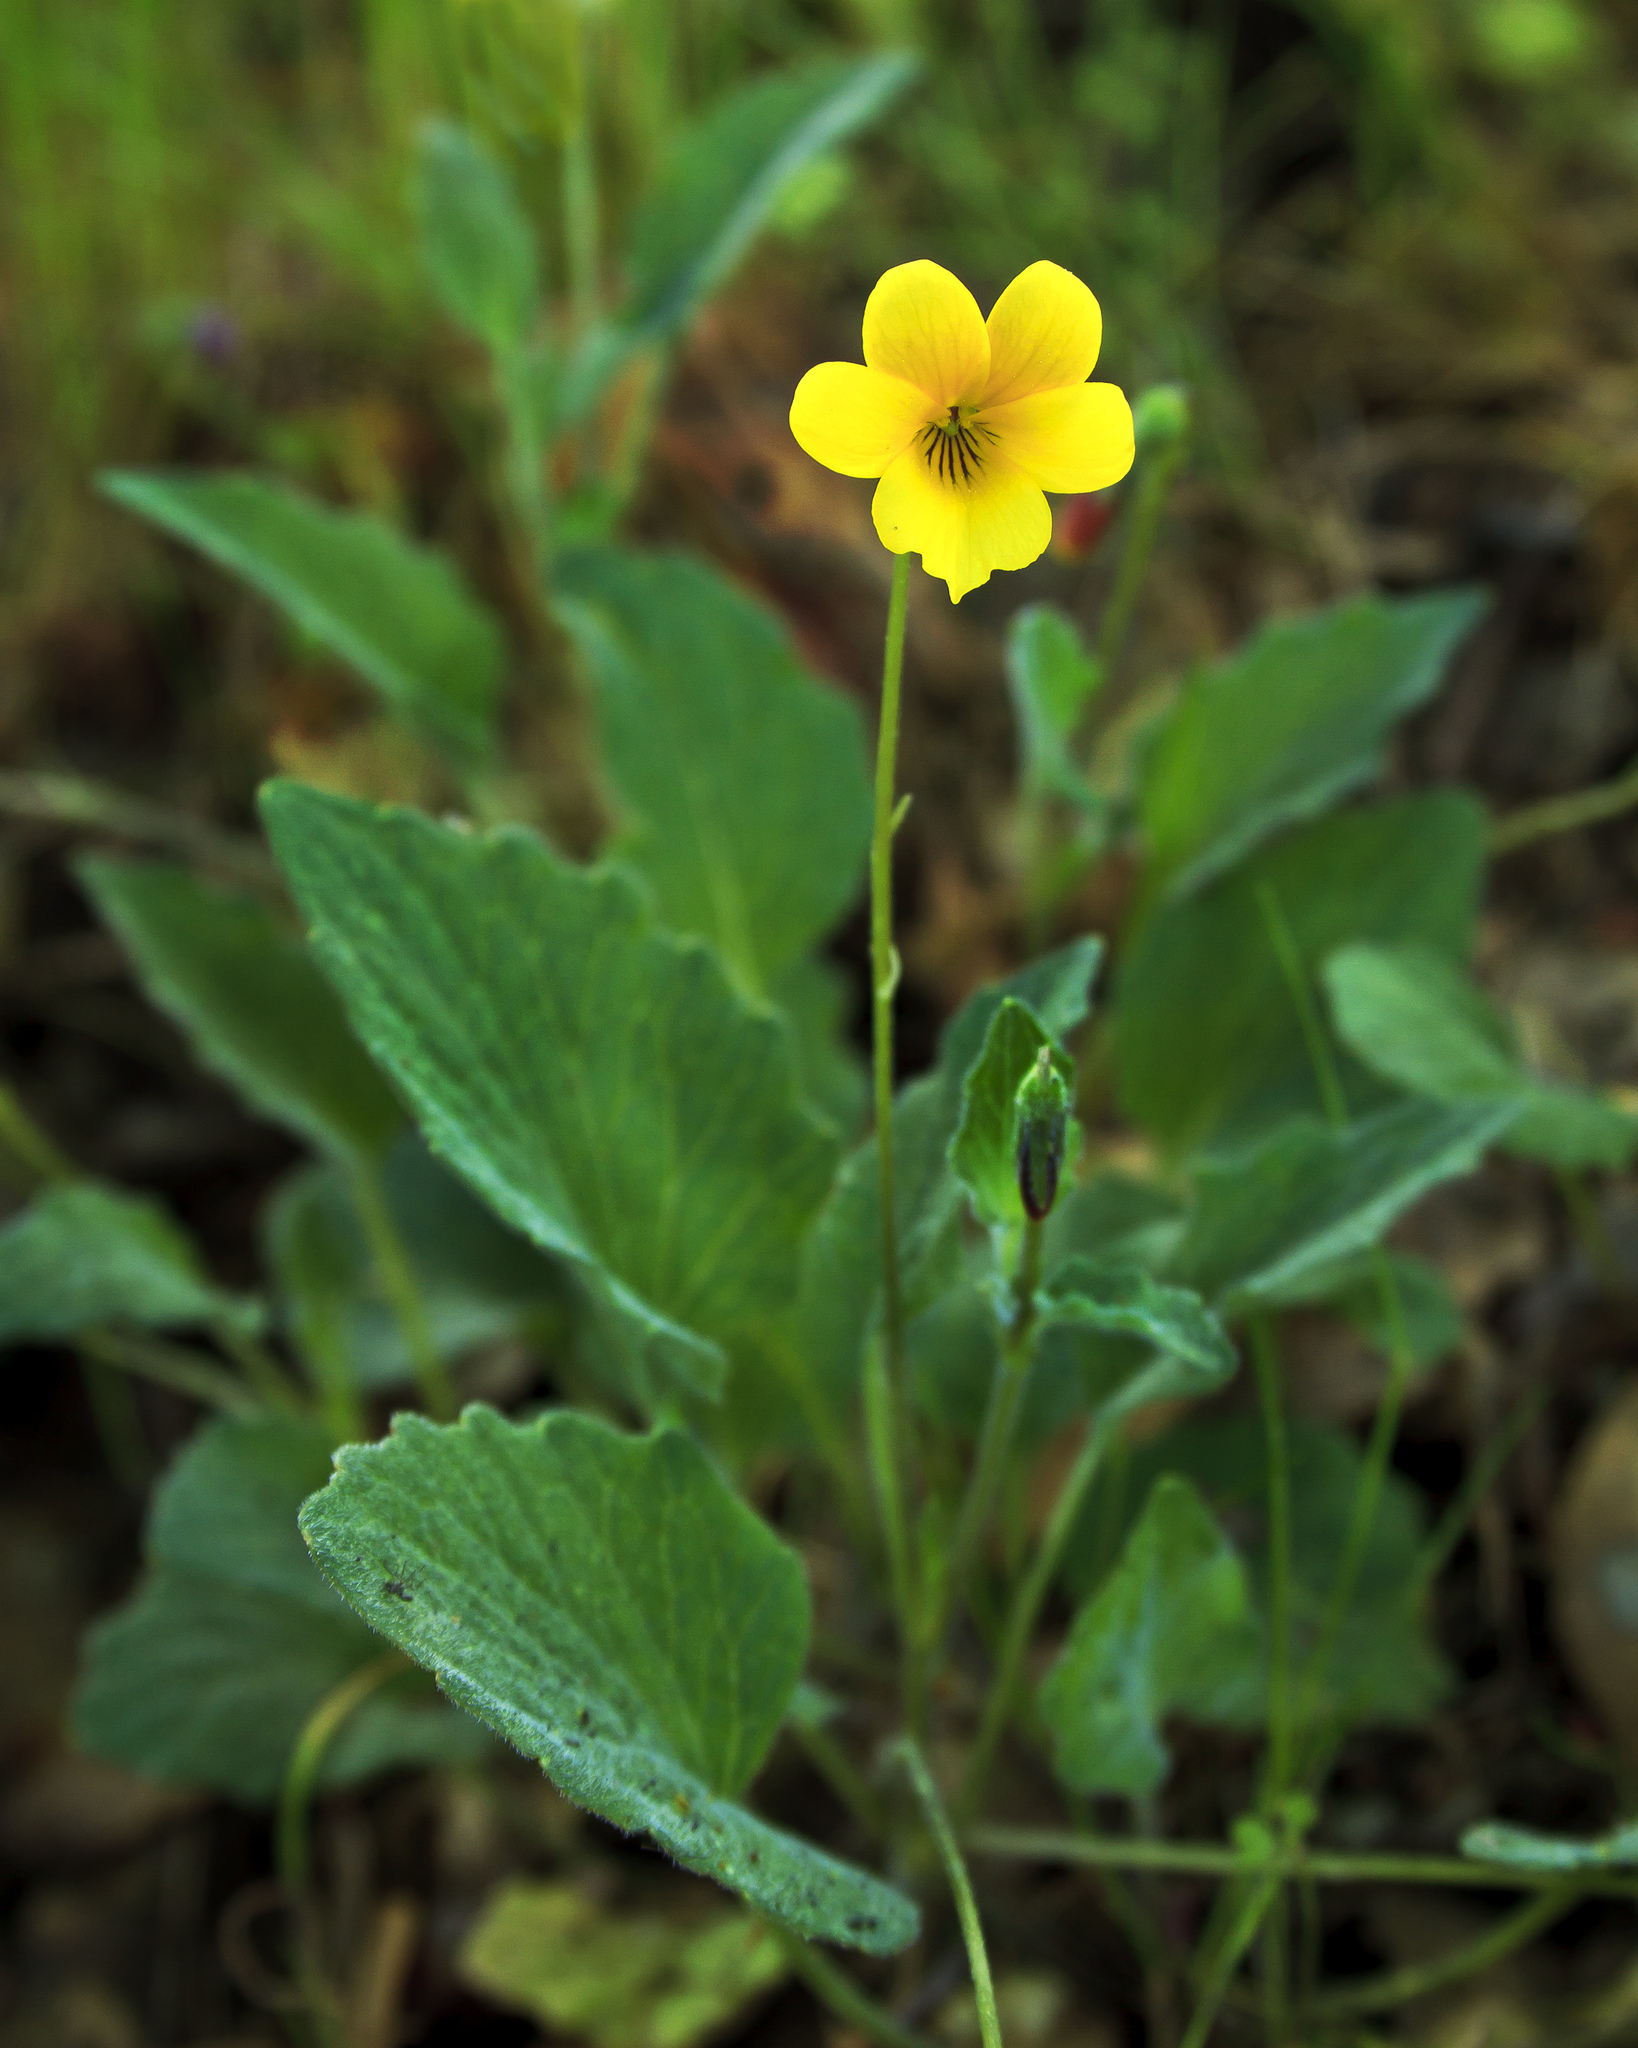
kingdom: Plantae
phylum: Tracheophyta
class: Magnoliopsida
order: Malpighiales
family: Violaceae
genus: Viola
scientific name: Viola purpurea
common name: Pine violet
